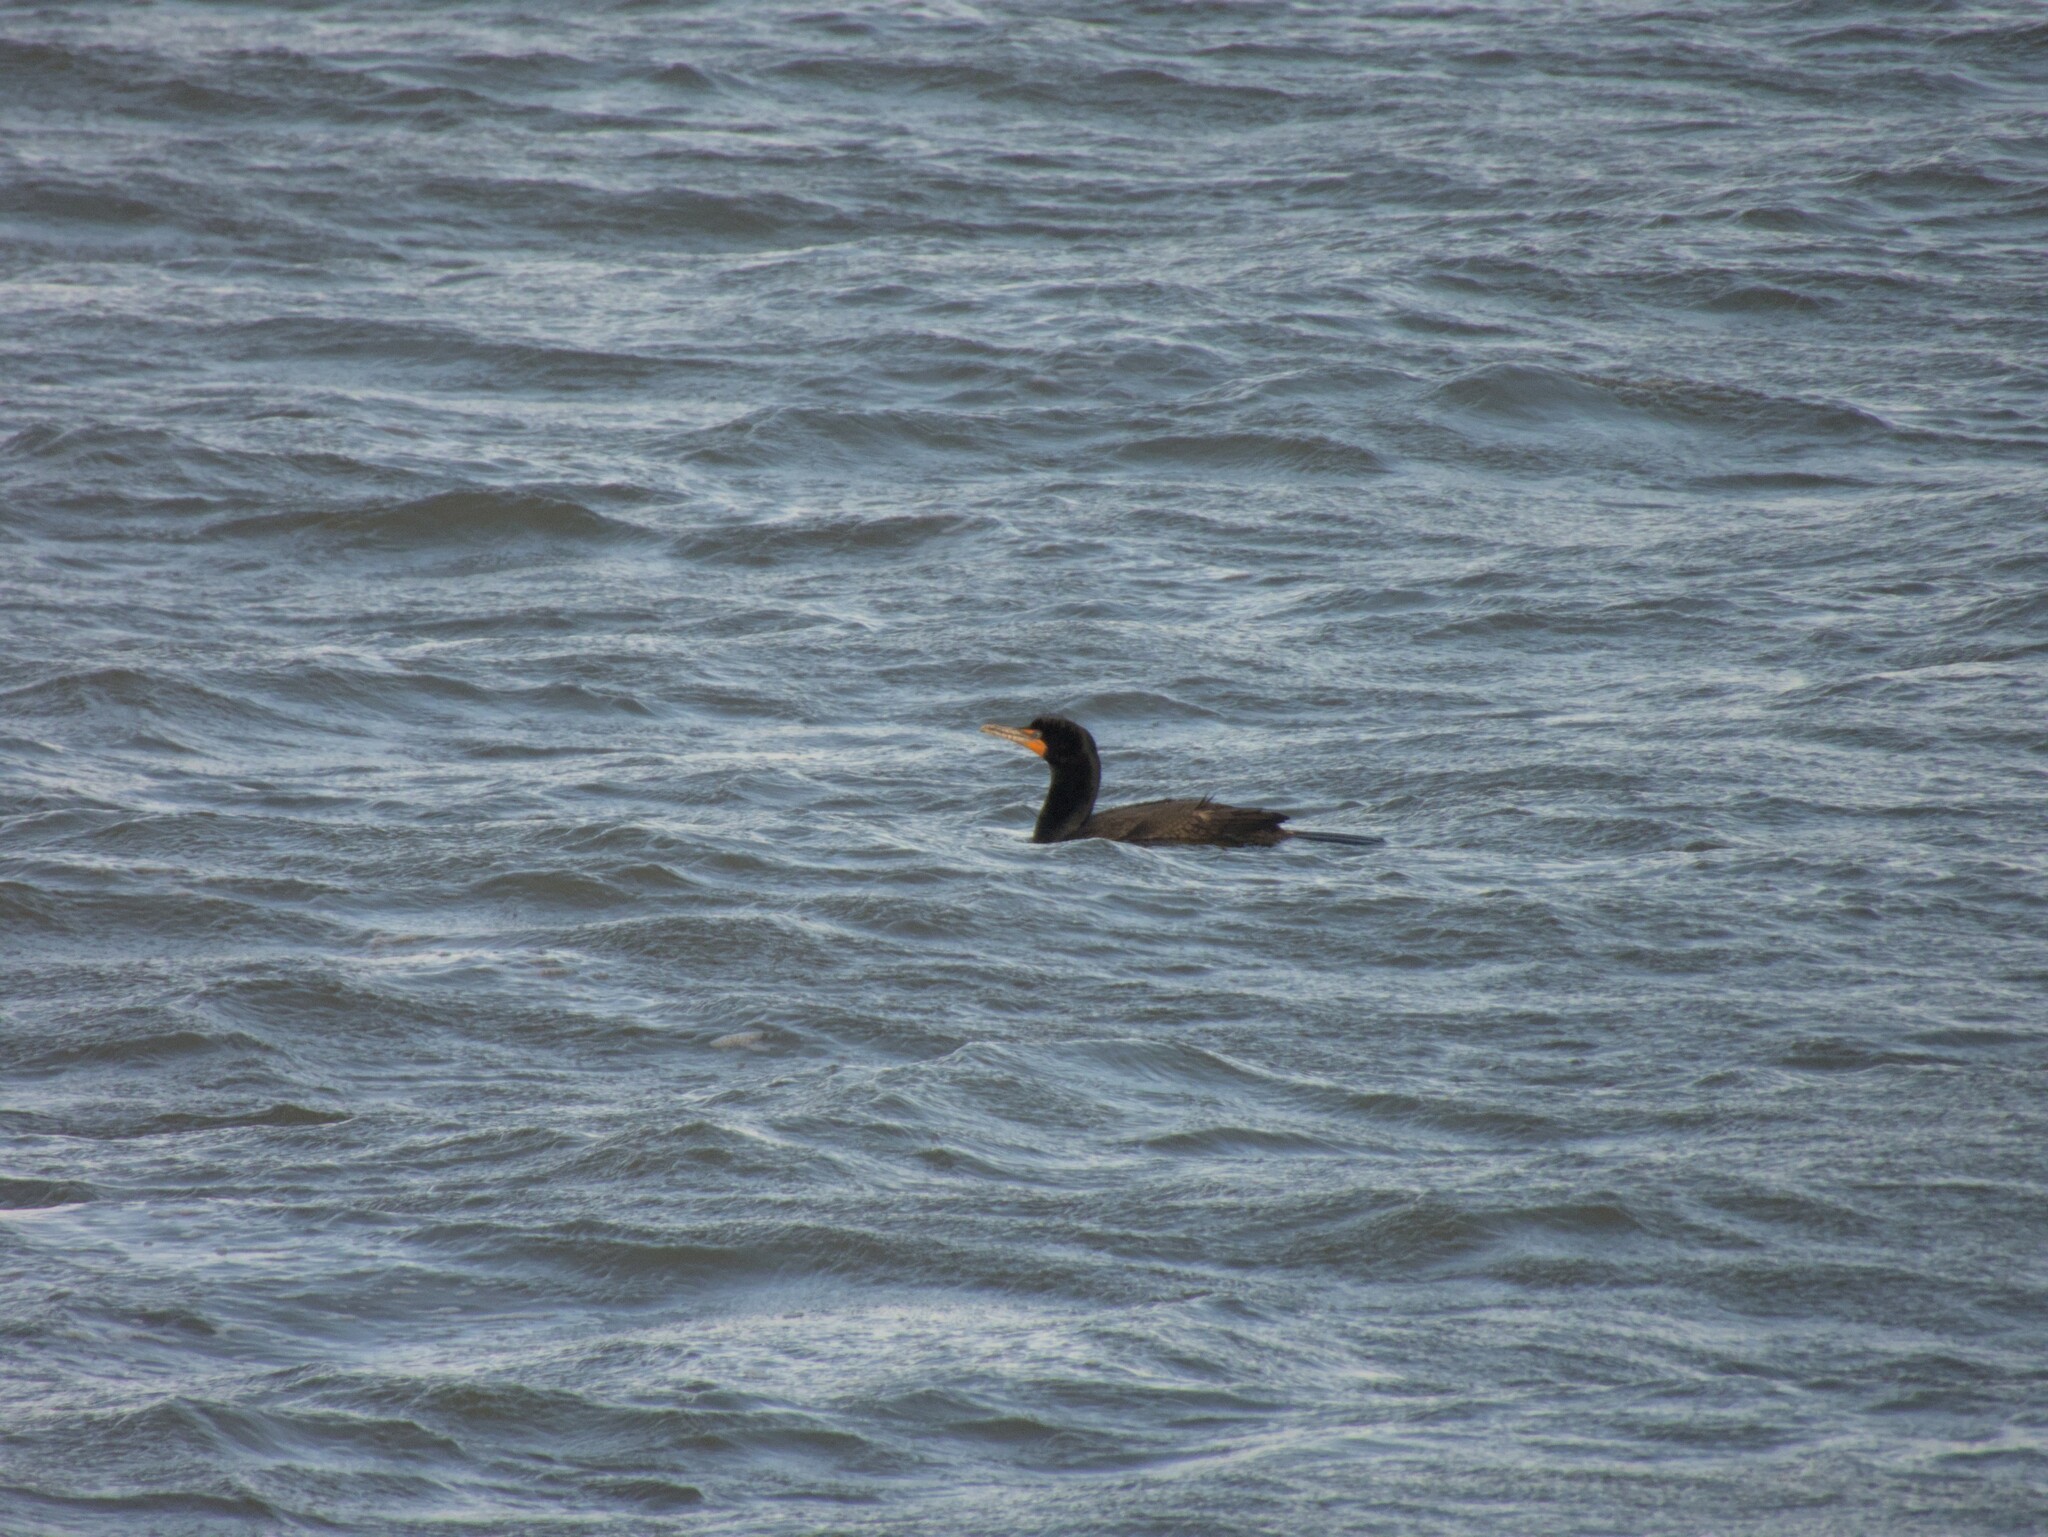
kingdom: Animalia
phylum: Chordata
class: Aves
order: Suliformes
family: Phalacrocoracidae
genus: Phalacrocorax
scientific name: Phalacrocorax auritus
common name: Double-crested cormorant
